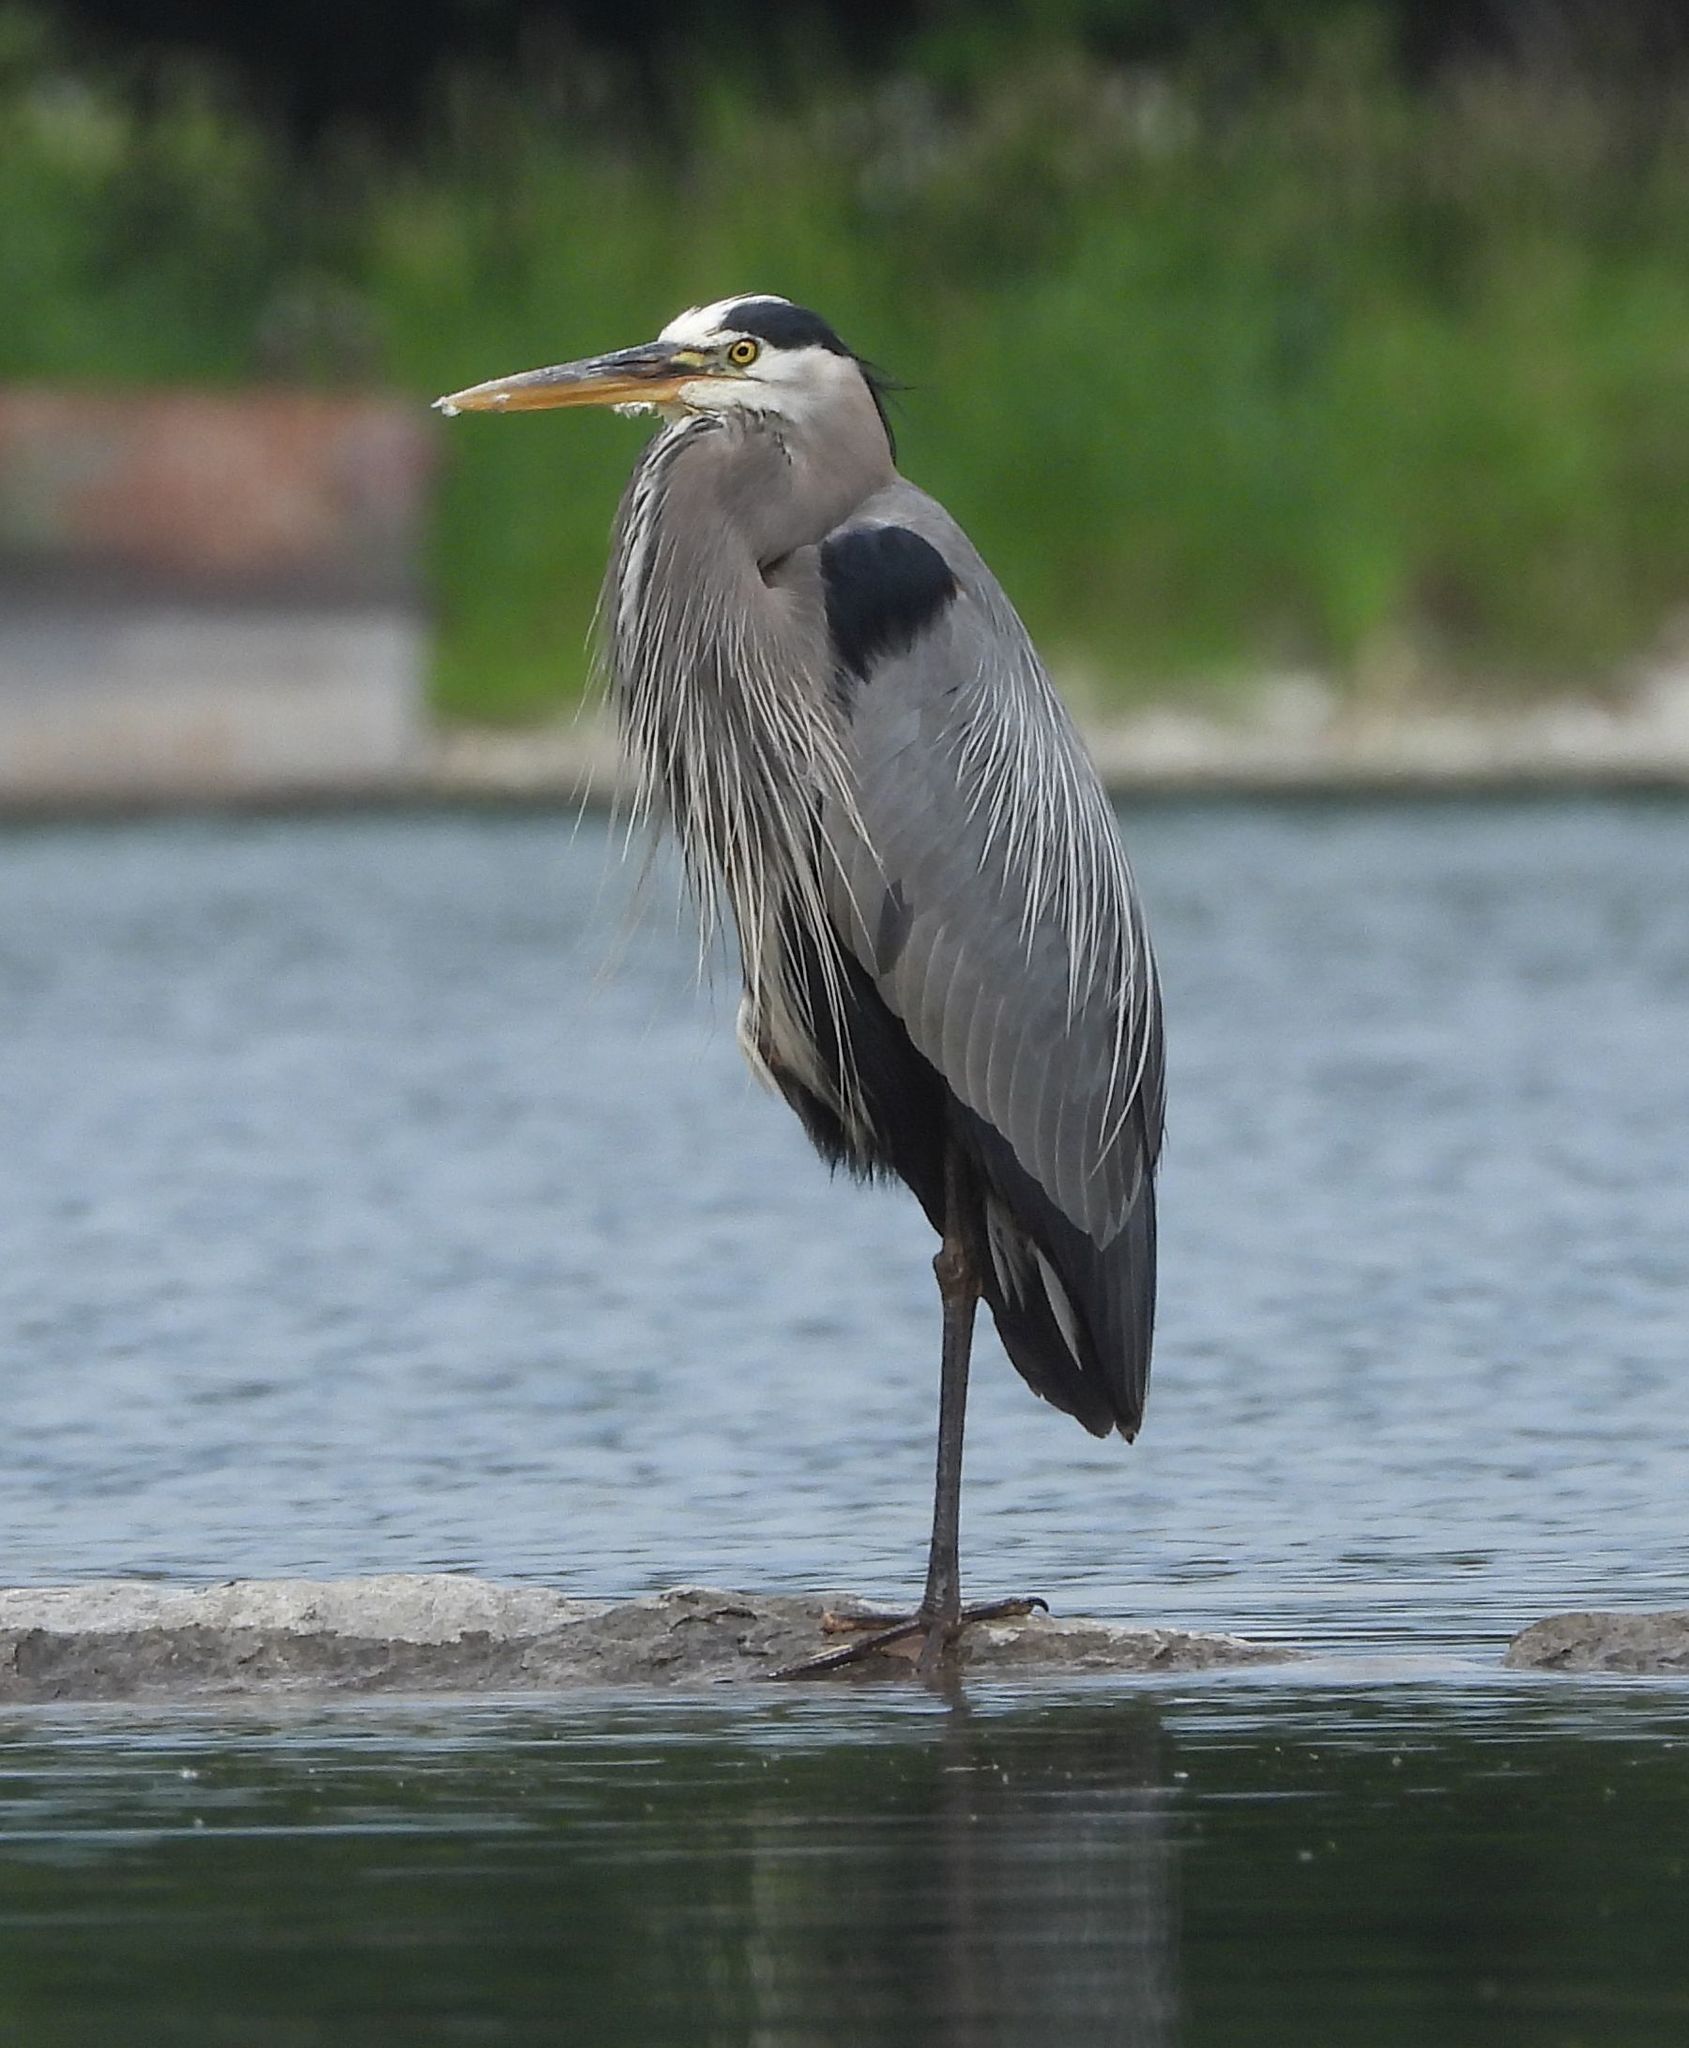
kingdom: Animalia
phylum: Chordata
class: Aves
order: Pelecaniformes
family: Ardeidae
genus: Ardea
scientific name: Ardea herodias
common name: Great blue heron
